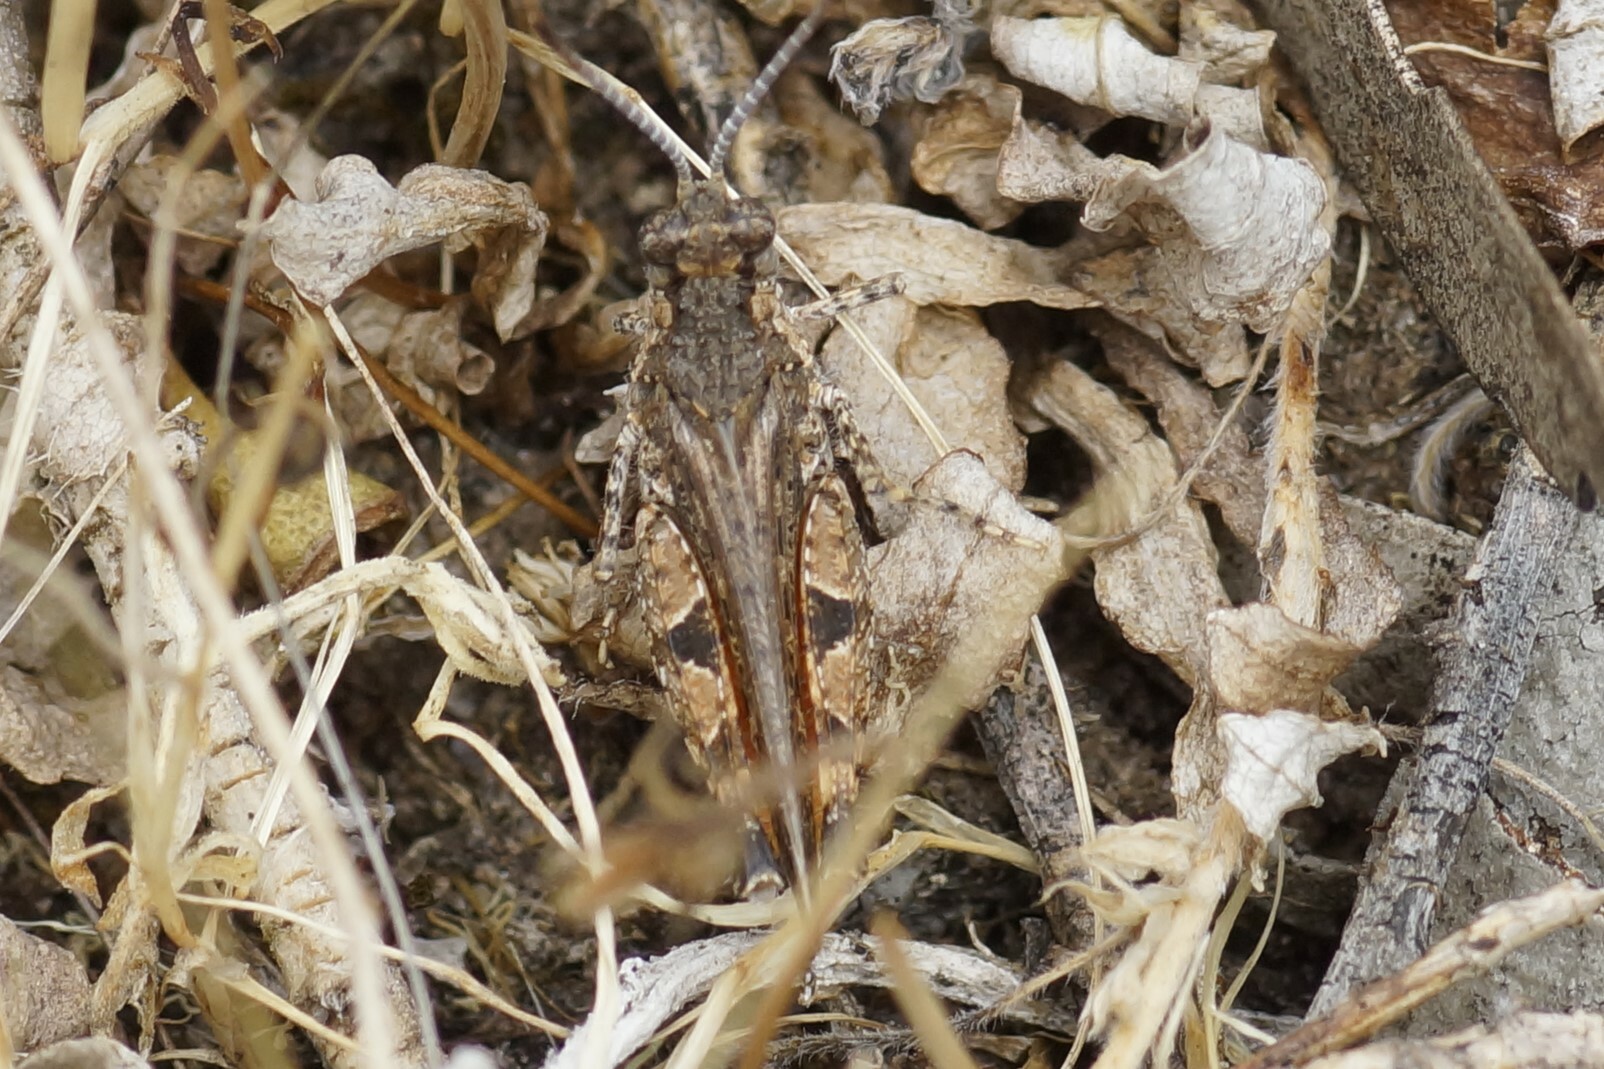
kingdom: Animalia
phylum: Arthropoda
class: Insecta
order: Orthoptera
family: Acrididae
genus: Urnisa
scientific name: Urnisa rugosa
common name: Red-legged urnisa
